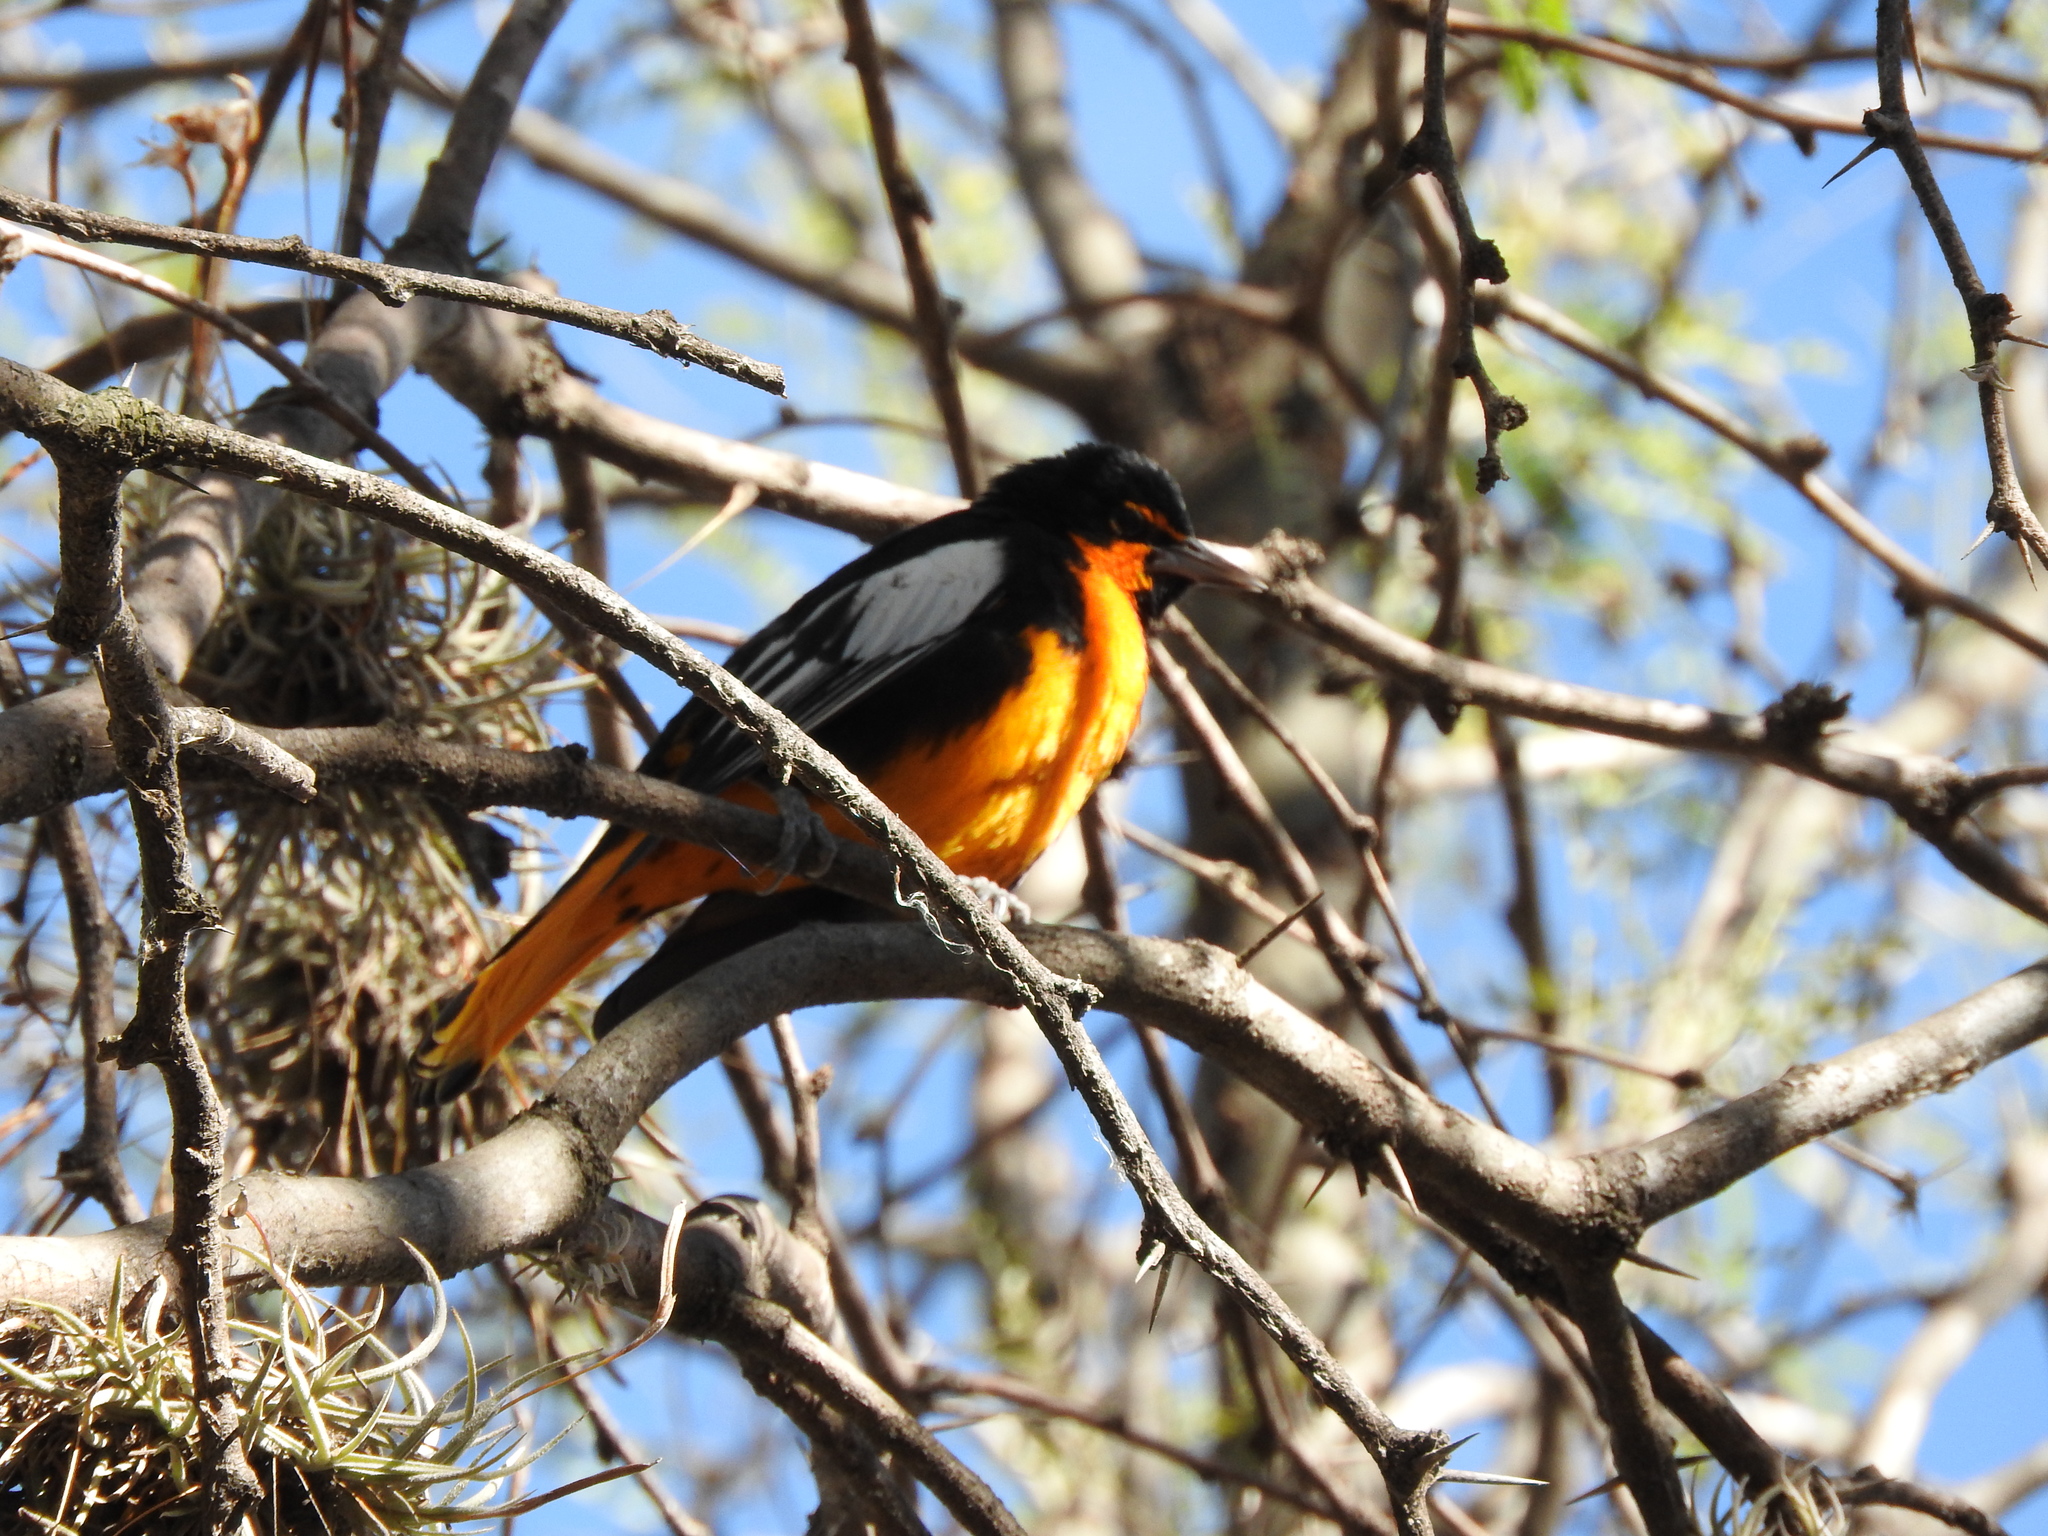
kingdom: Animalia
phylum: Chordata
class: Aves
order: Passeriformes
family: Icteridae
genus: Icterus
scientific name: Icterus abeillei
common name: Black-backed oriole
